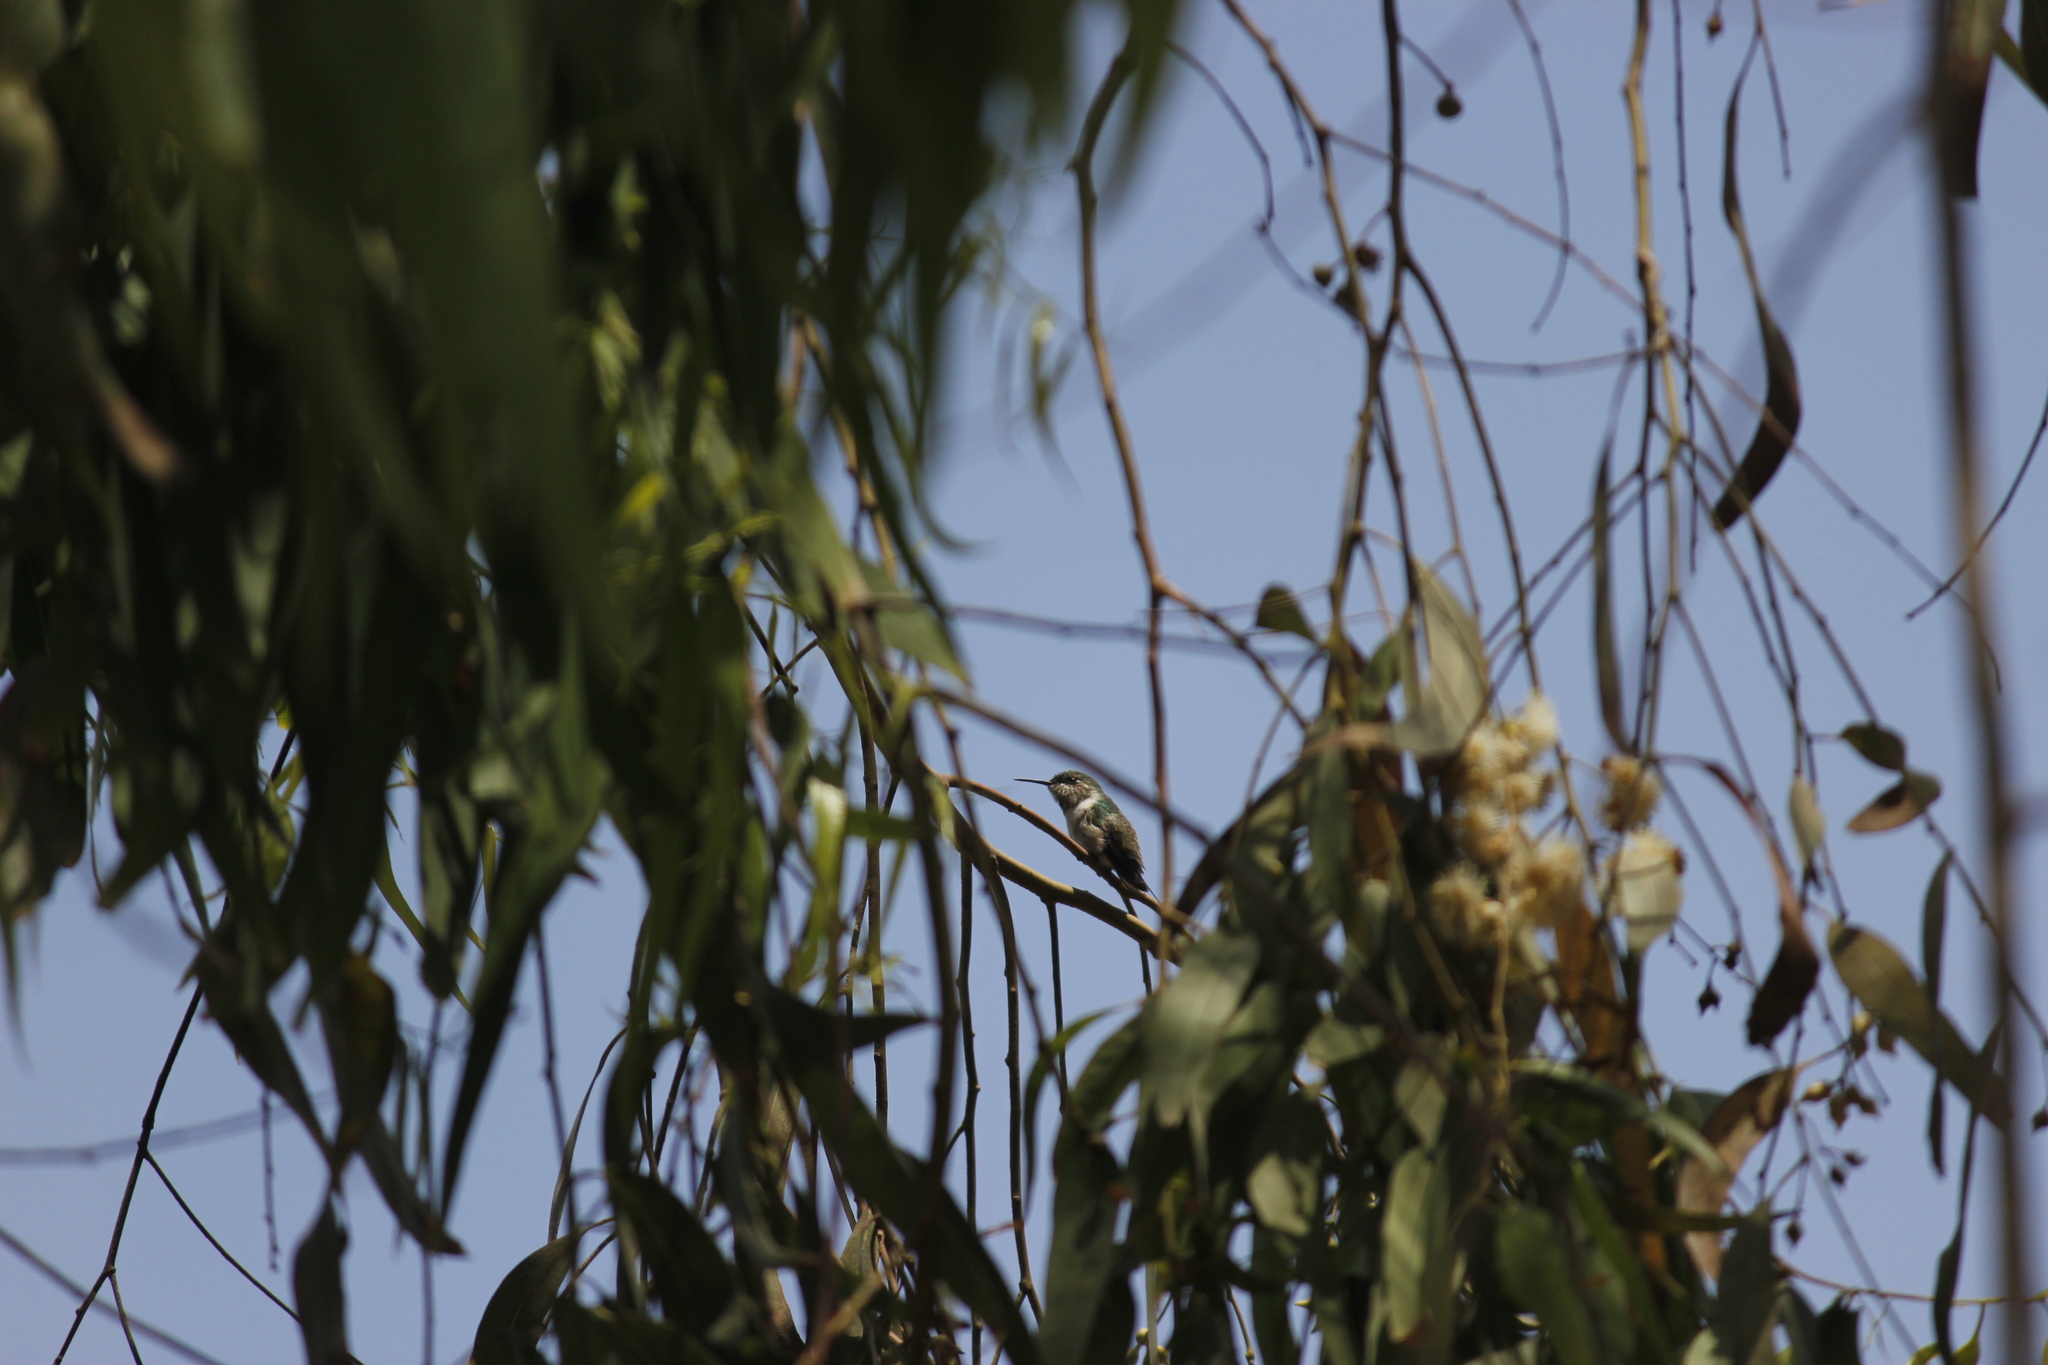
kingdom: Animalia
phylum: Chordata
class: Aves
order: Apodiformes
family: Trochilidae
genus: Myrtis
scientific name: Myrtis fanny
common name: Purple-collared woodstar
